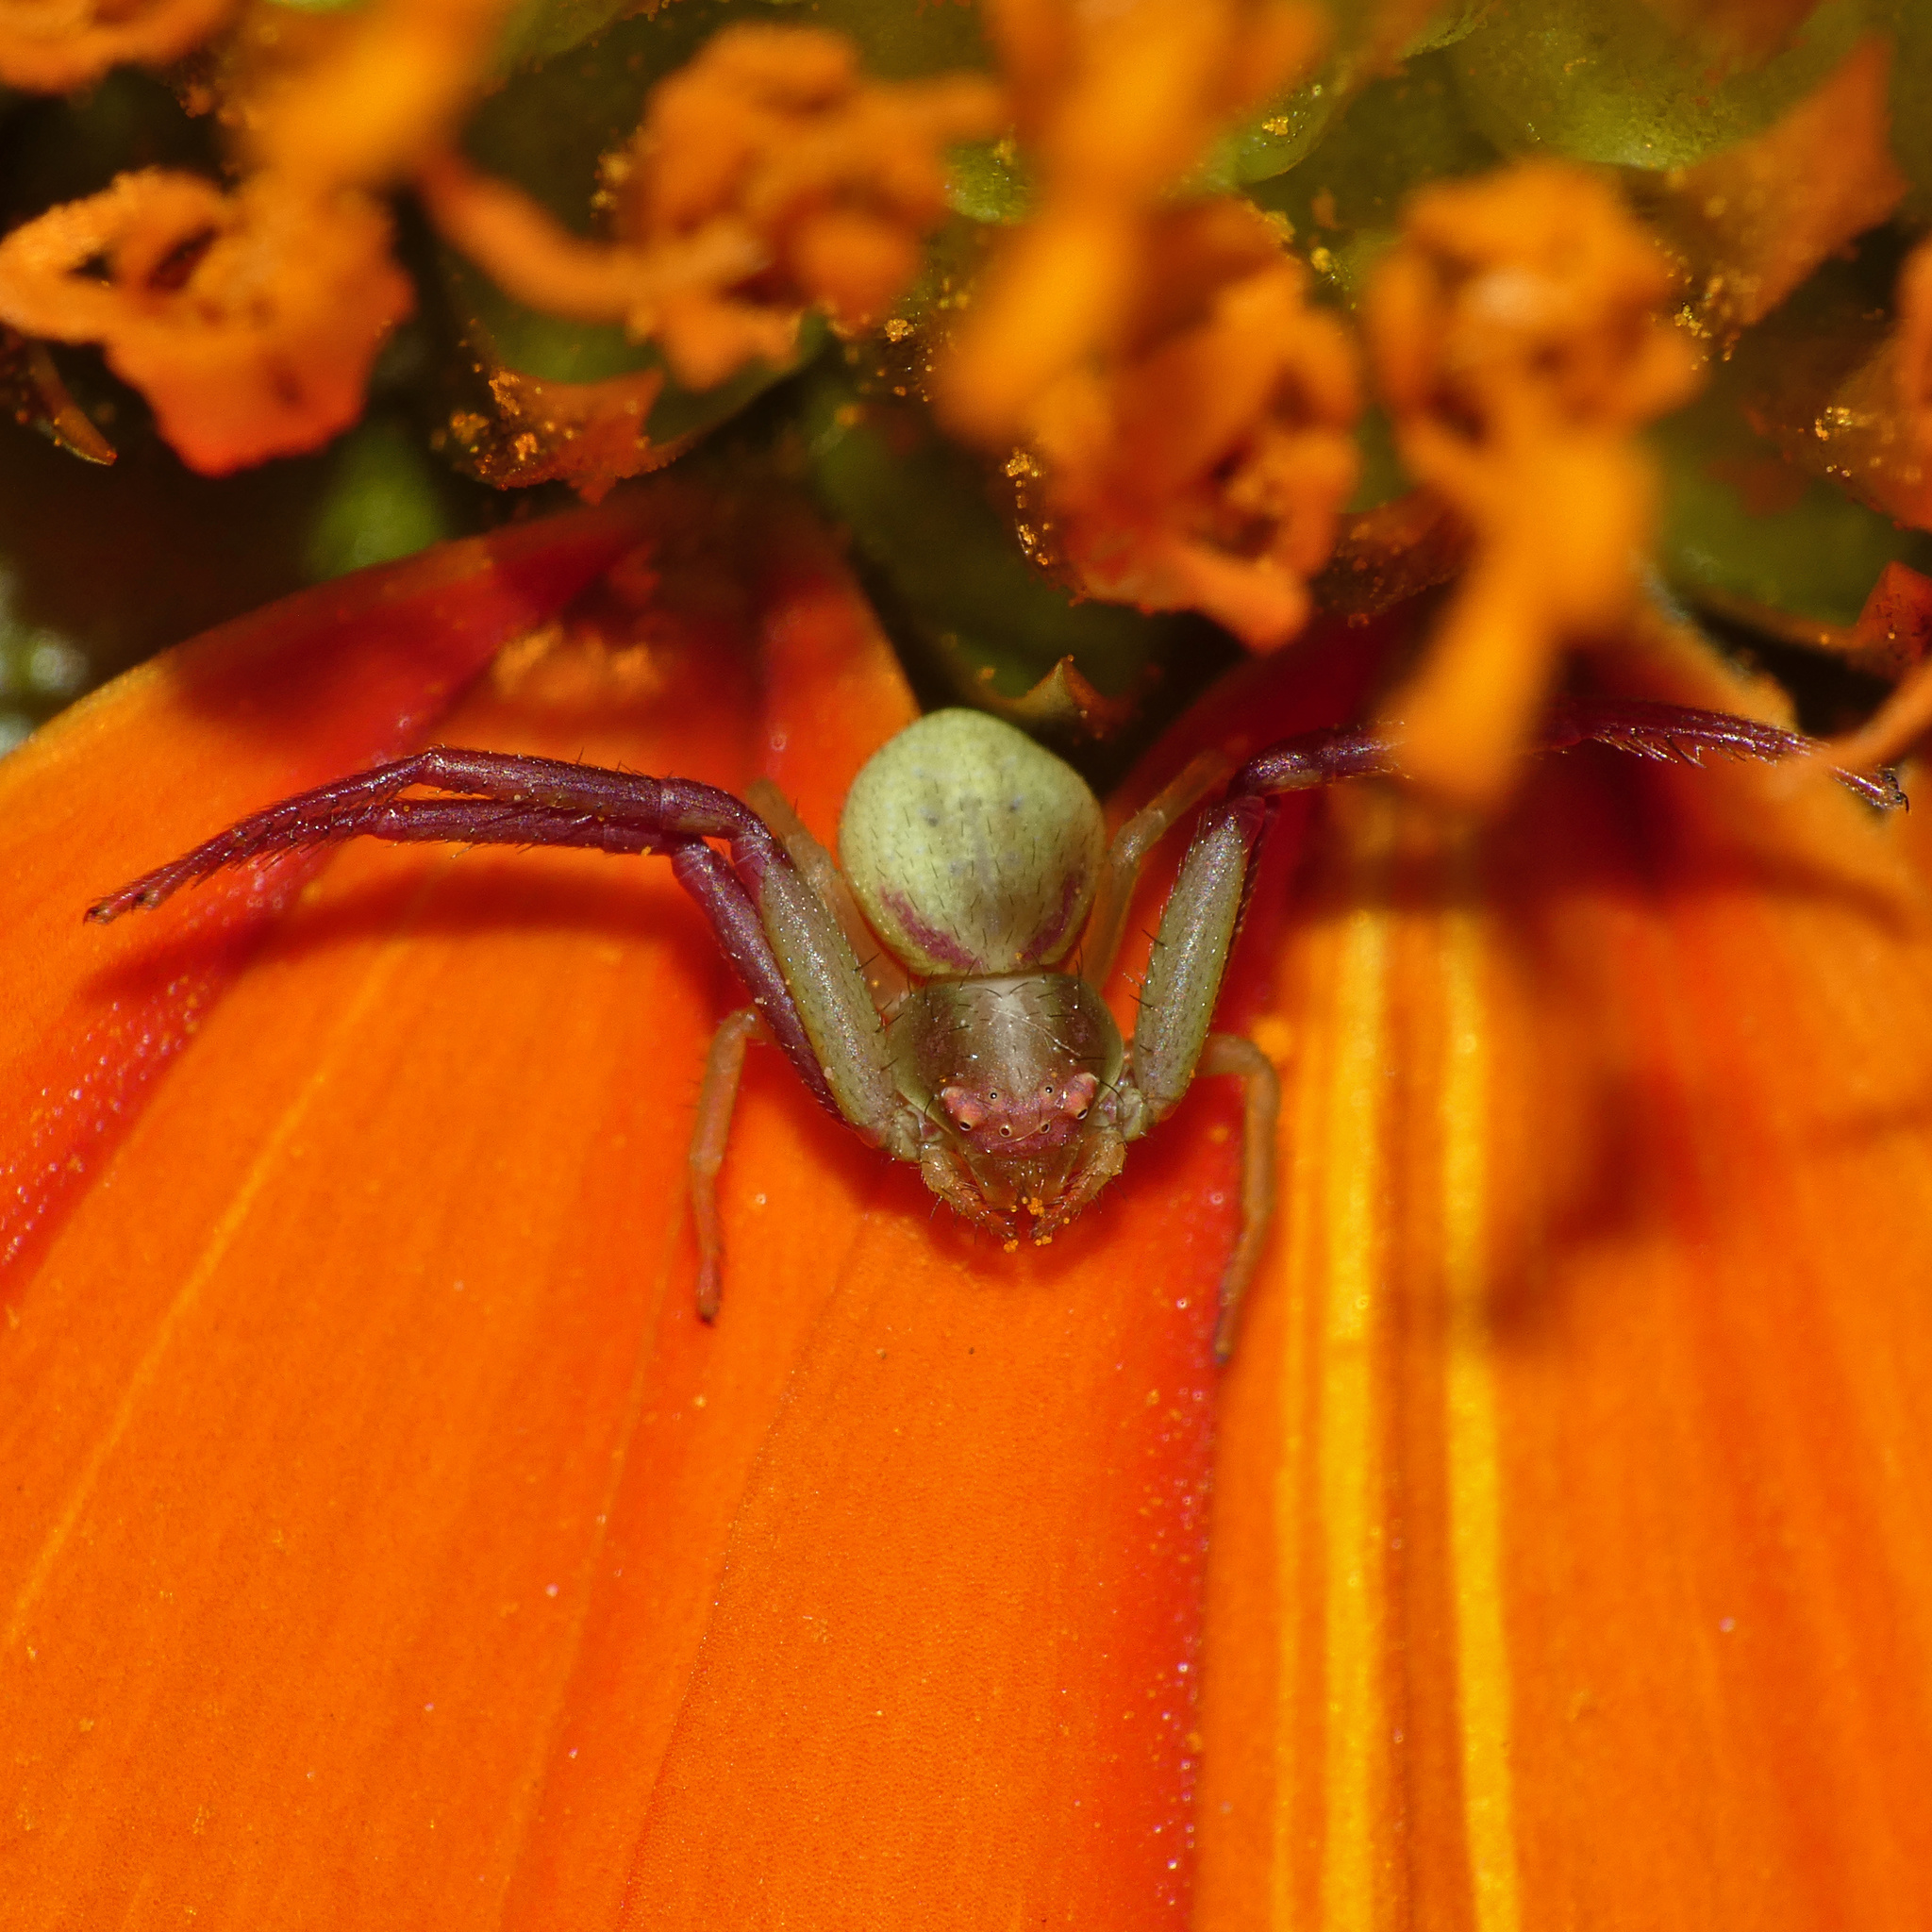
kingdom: Animalia
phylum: Arthropoda
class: Arachnida
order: Araneae
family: Thomisidae
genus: Misumenops
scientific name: Misumenops rubrodecoratus
